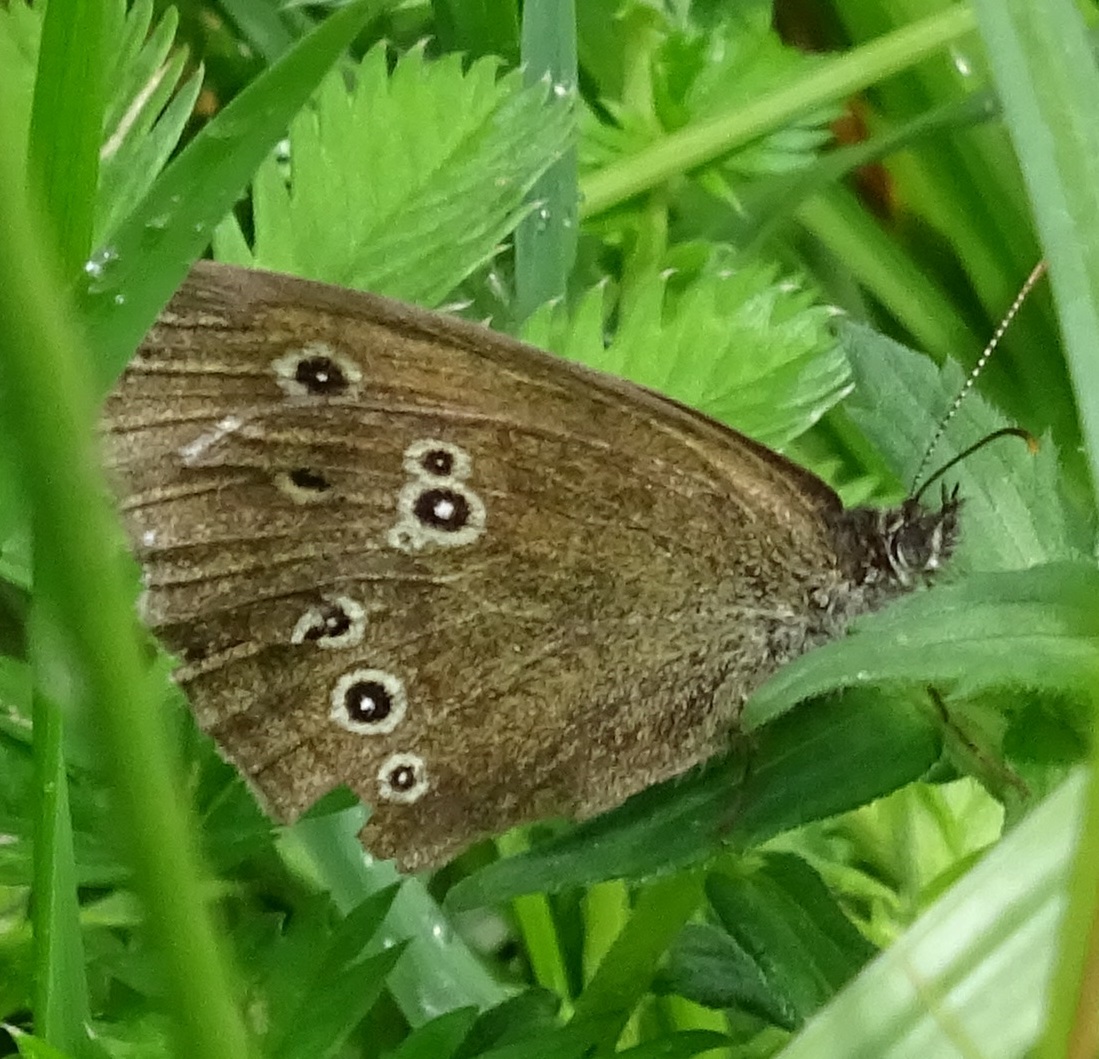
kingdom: Animalia
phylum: Arthropoda
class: Insecta
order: Lepidoptera
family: Nymphalidae
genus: Aphantopus
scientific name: Aphantopus hyperantus
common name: Ringlet
